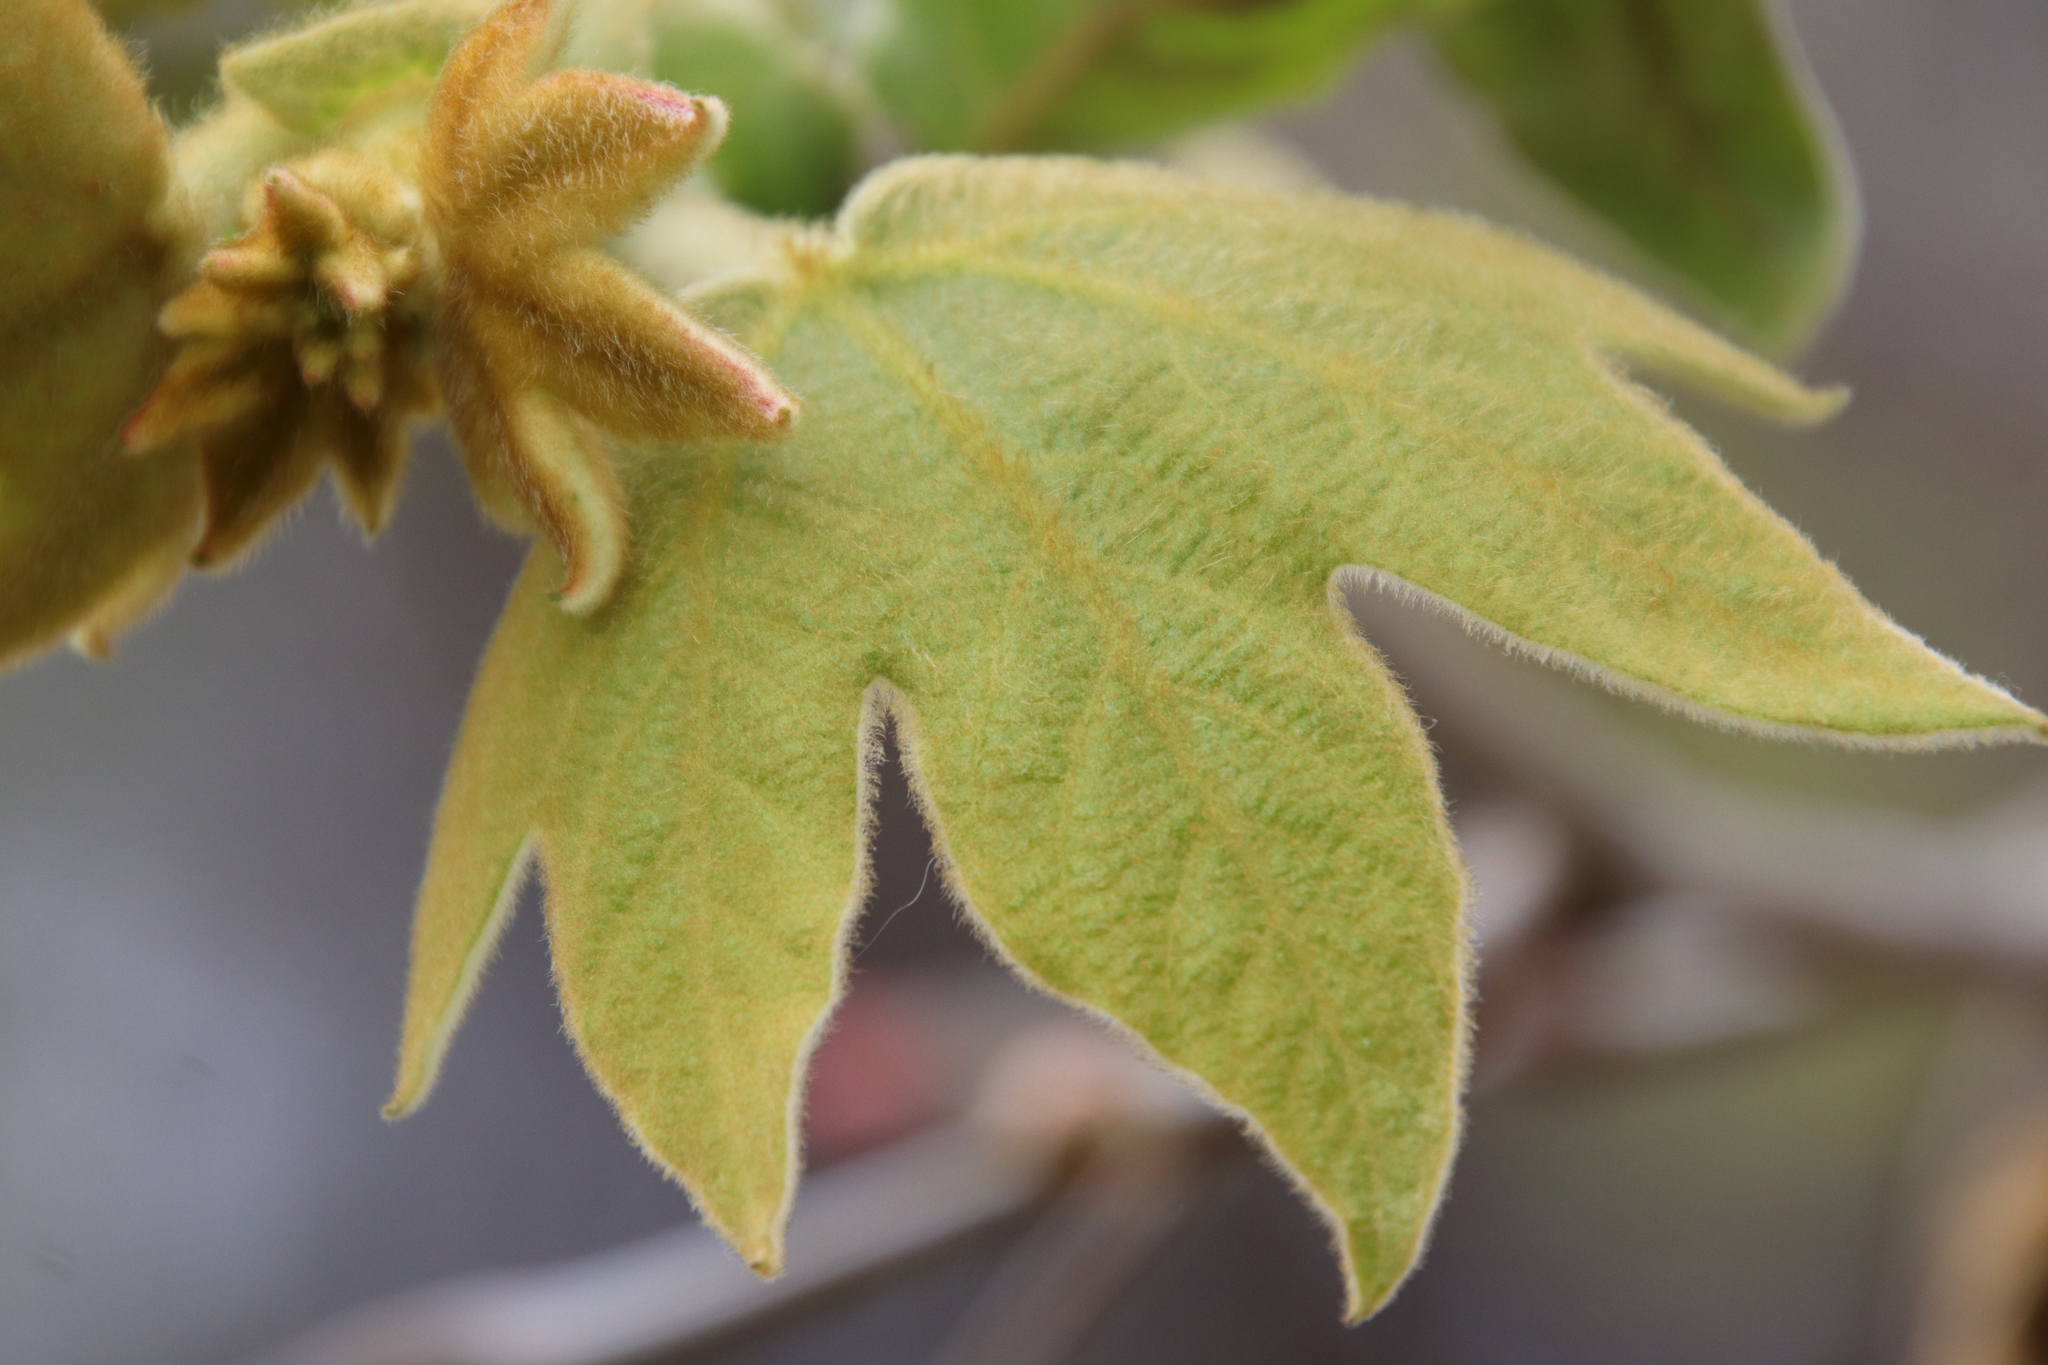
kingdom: Plantae
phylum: Tracheophyta
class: Magnoliopsida
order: Proteales
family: Platanaceae
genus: Platanus
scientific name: Platanus racemosa
